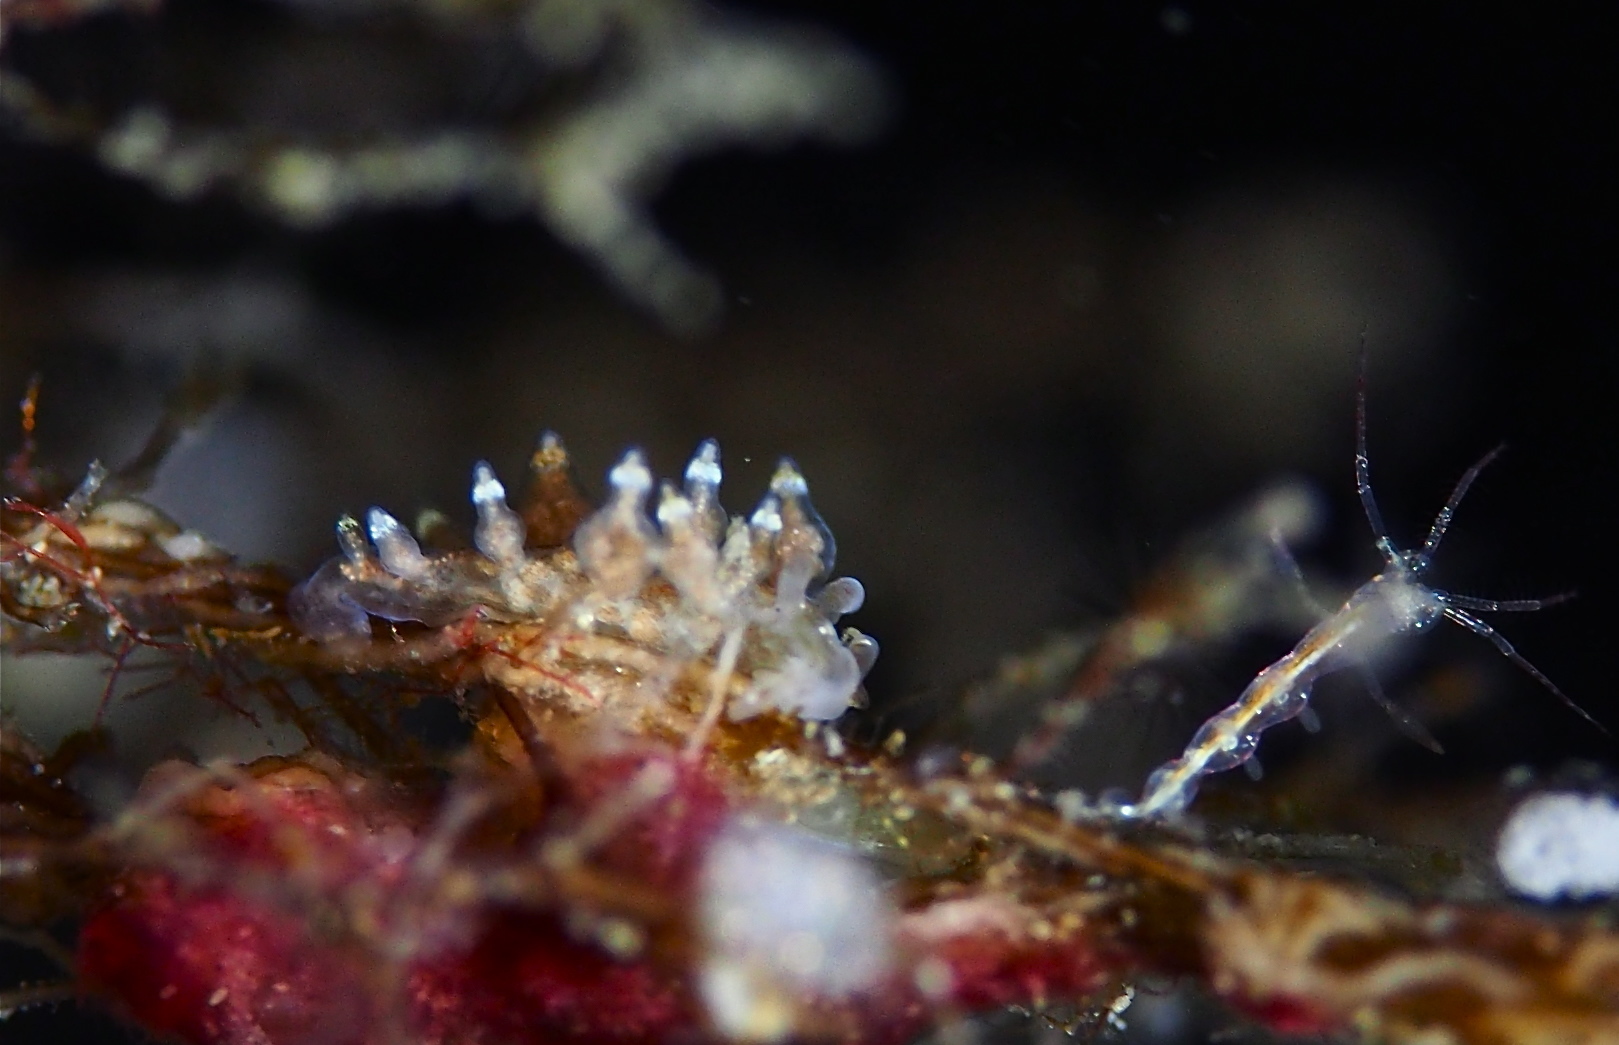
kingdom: Animalia
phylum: Mollusca
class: Gastropoda
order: Nudibranchia
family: Eubranchidae
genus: Eubranchus
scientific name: Eubranchus exiguus
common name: Balloon aeolis
